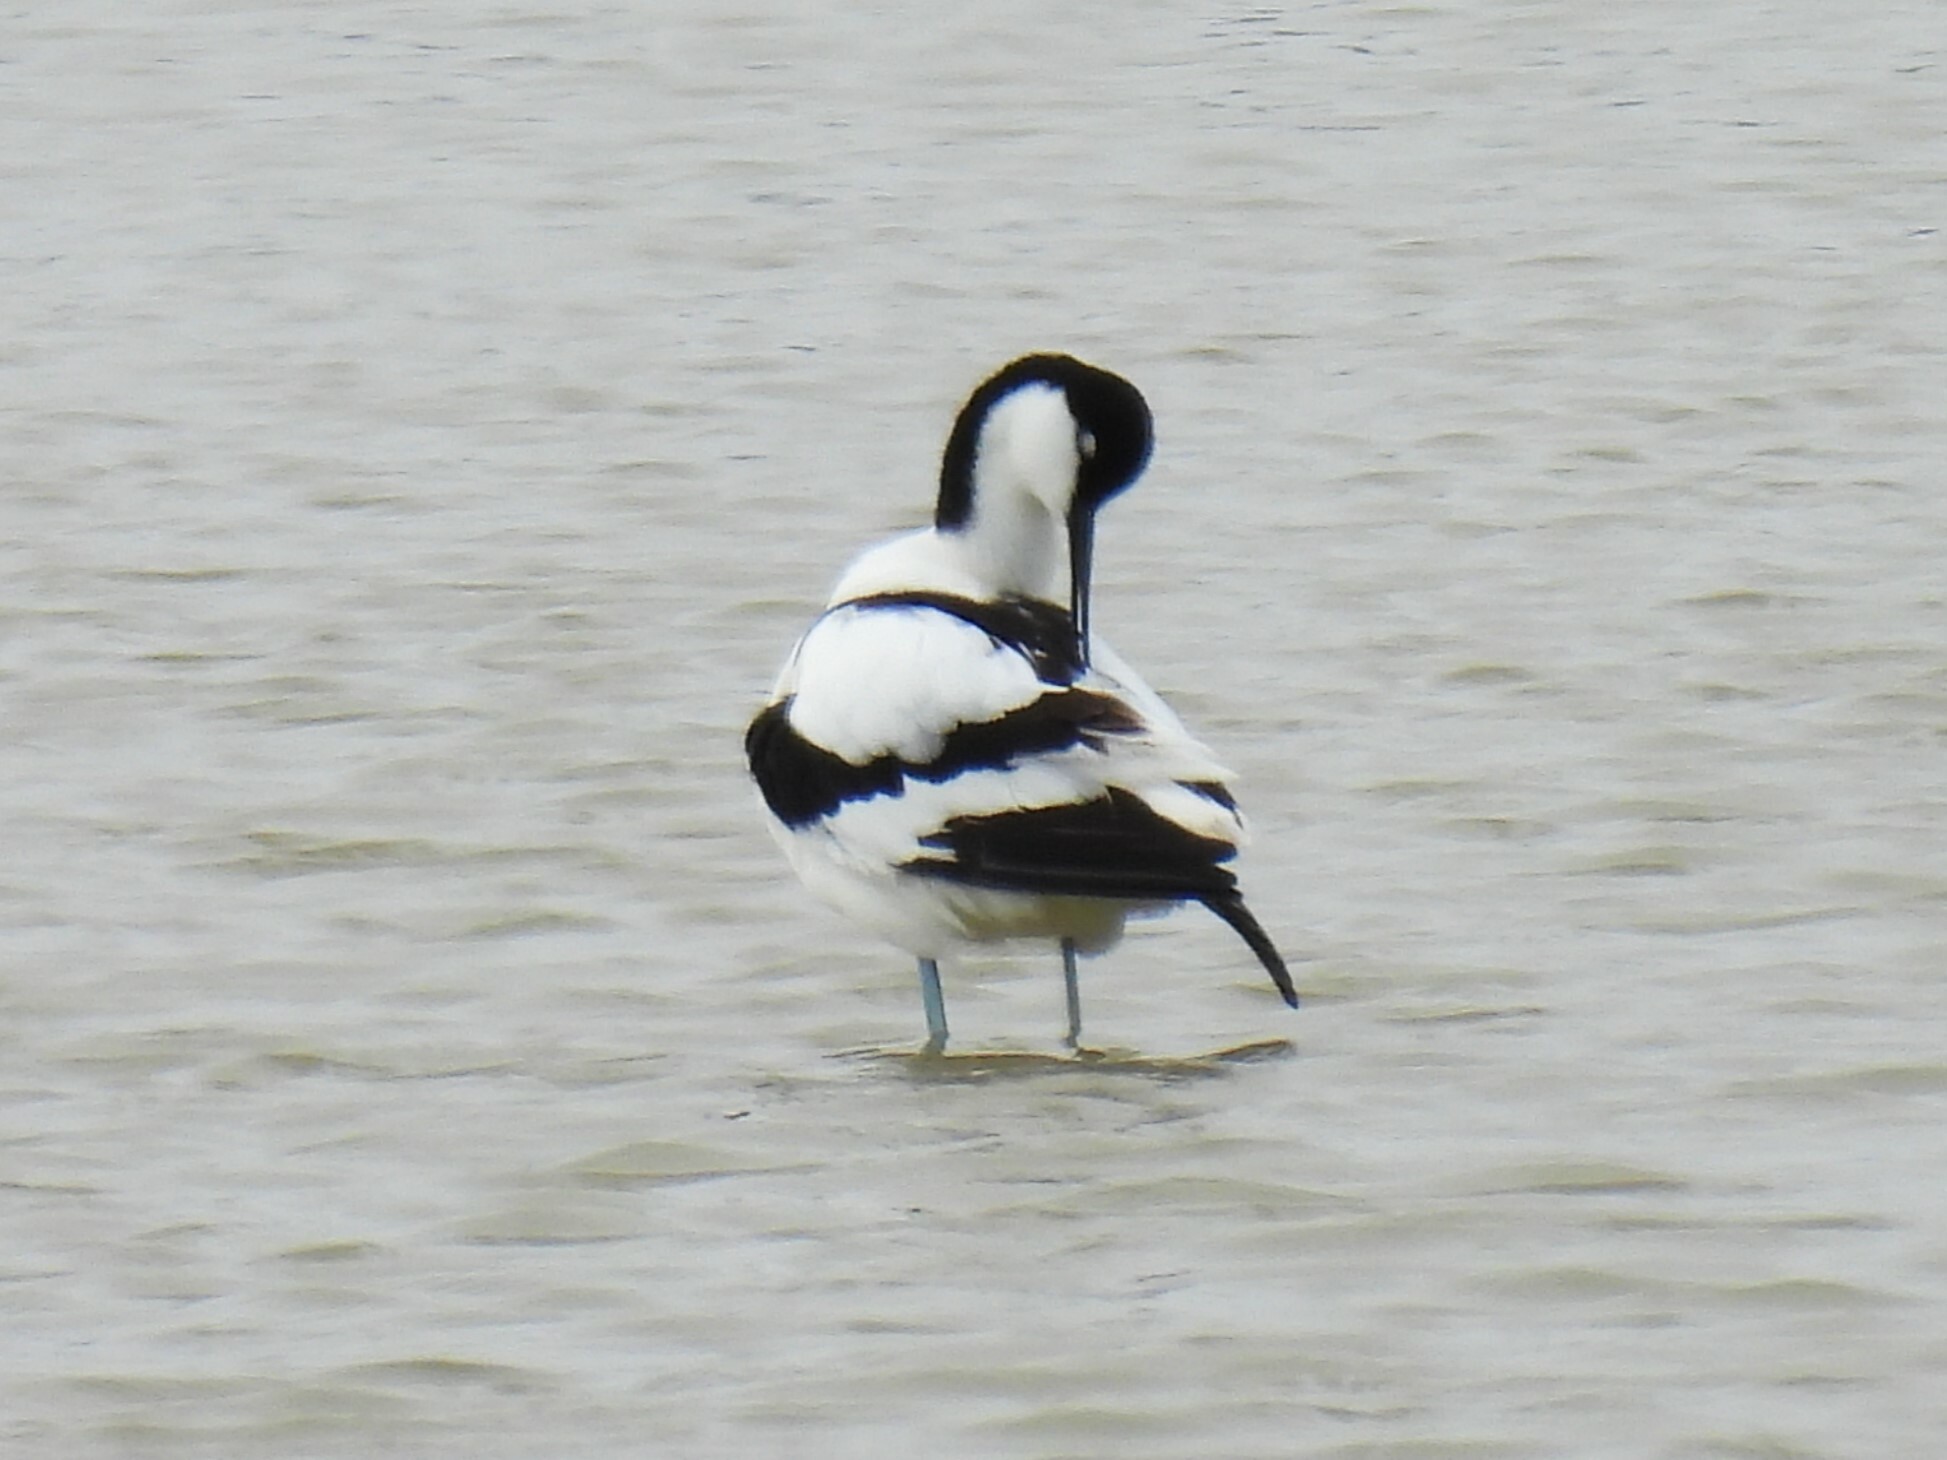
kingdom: Animalia
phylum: Chordata
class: Aves
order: Charadriiformes
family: Recurvirostridae
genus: Recurvirostra
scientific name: Recurvirostra avosetta
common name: Pied avocet
